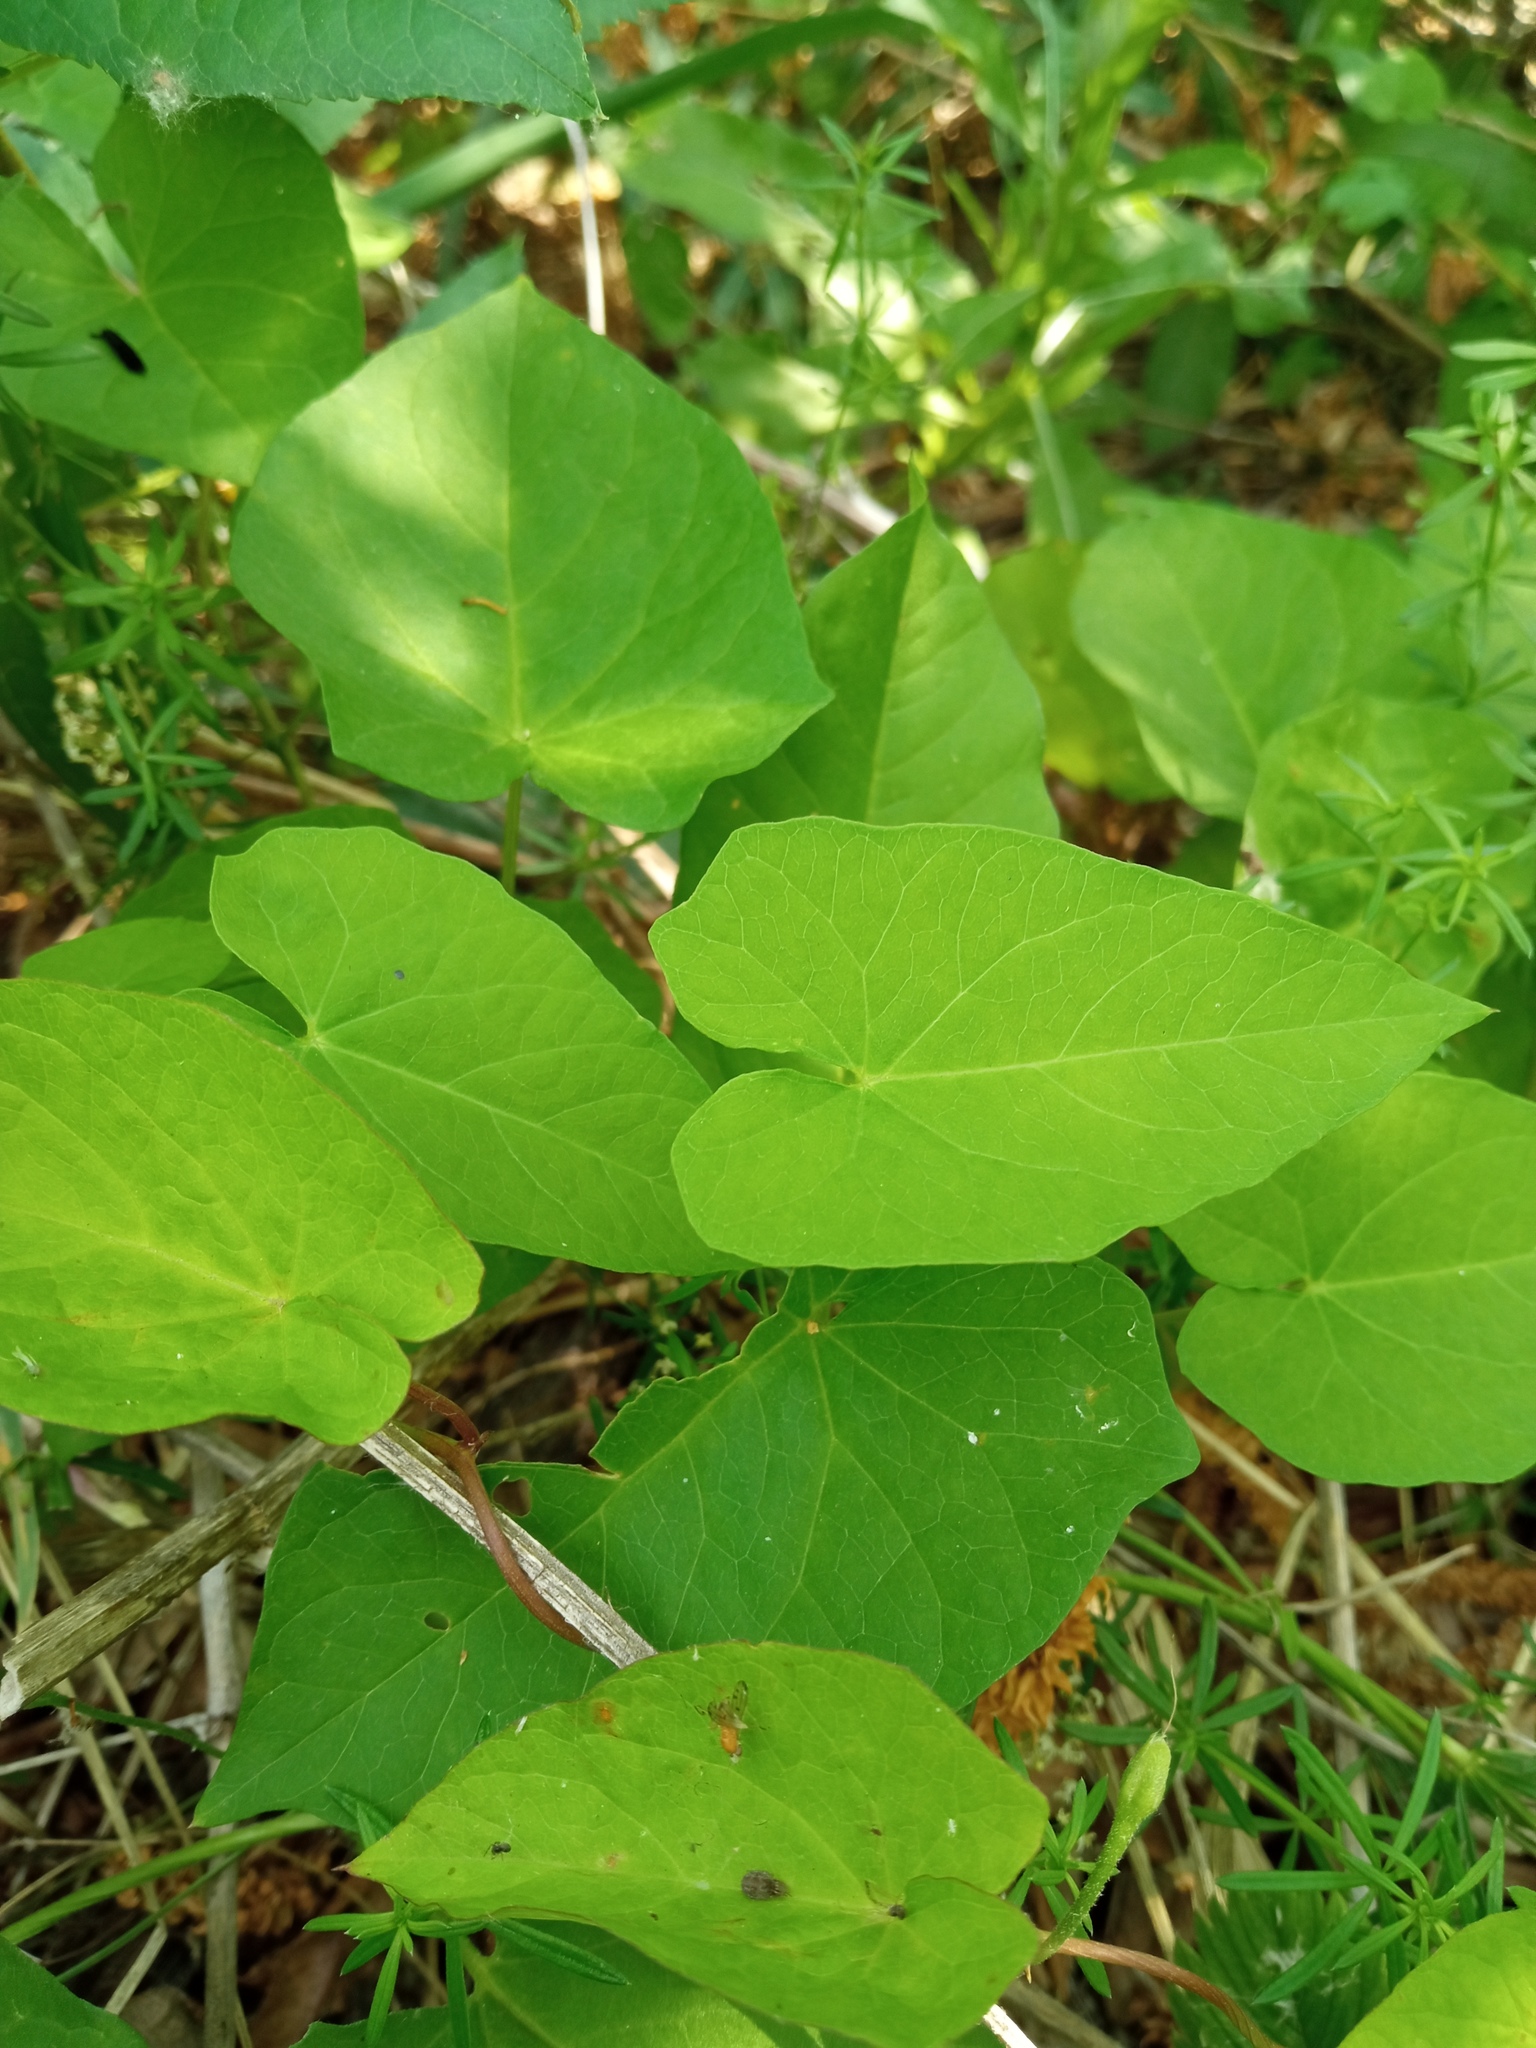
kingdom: Plantae
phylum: Tracheophyta
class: Magnoliopsida
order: Solanales
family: Convolvulaceae
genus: Calystegia
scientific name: Calystegia sepium
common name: Hedge bindweed
